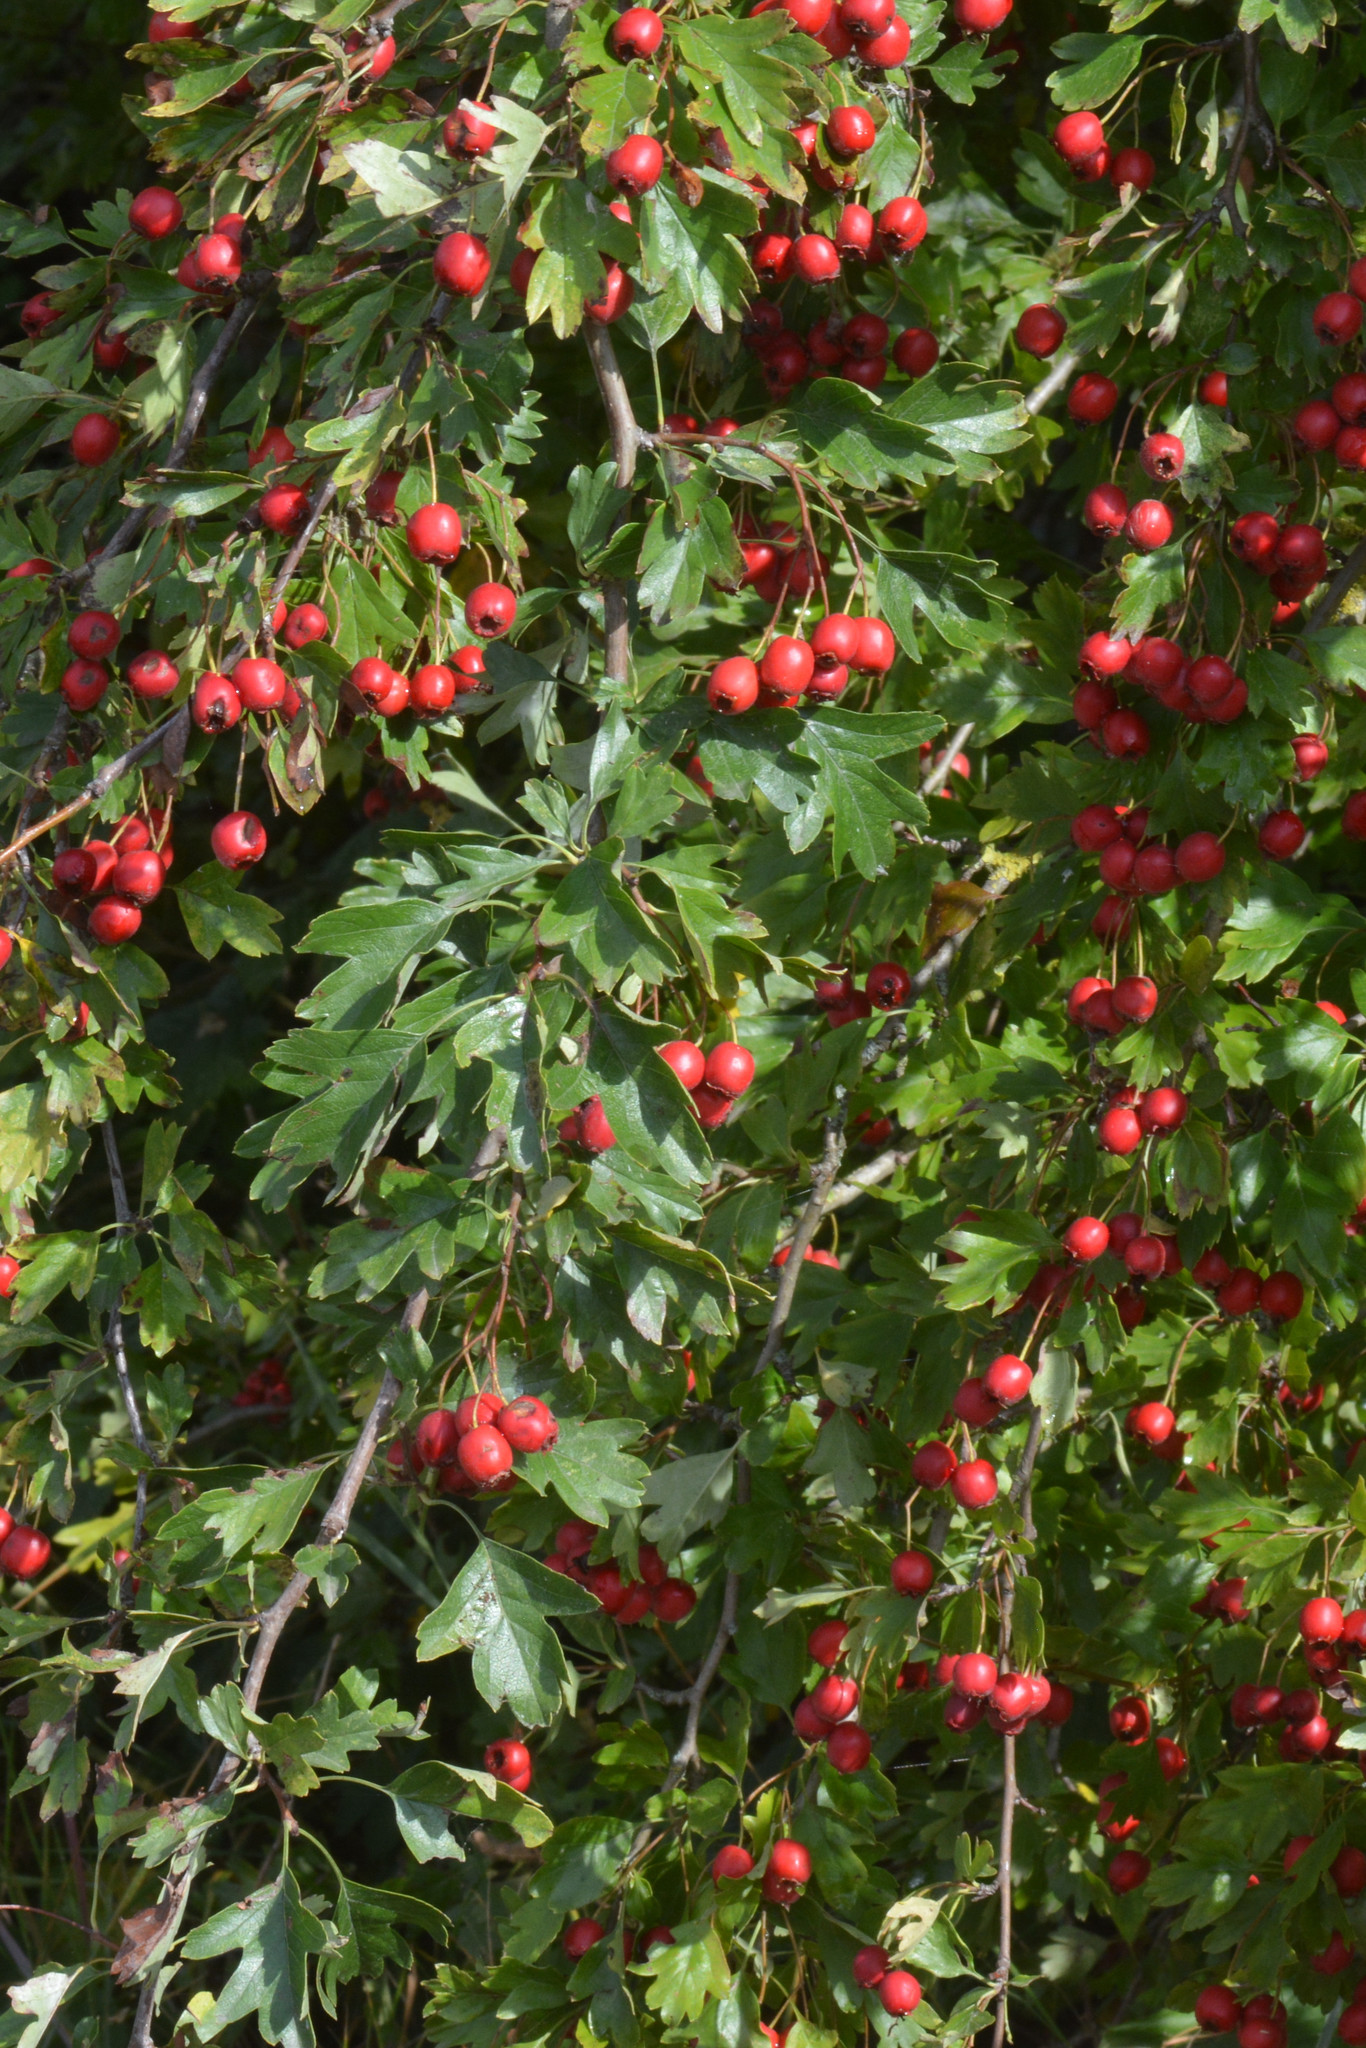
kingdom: Plantae
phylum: Tracheophyta
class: Magnoliopsida
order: Rosales
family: Rosaceae
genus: Crataegus
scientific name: Crataegus monogyna
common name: Hawthorn
